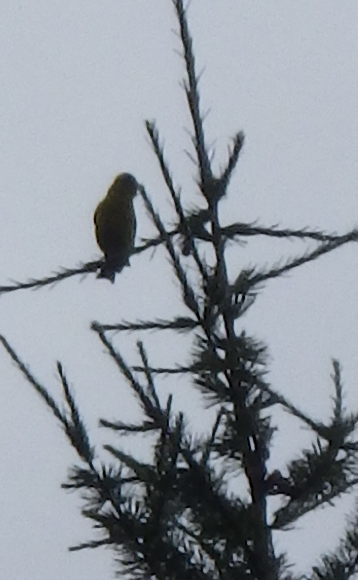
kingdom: Animalia
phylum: Chordata
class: Aves
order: Passeriformes
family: Fringillidae
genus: Spinus
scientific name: Spinus tristis
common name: American goldfinch
